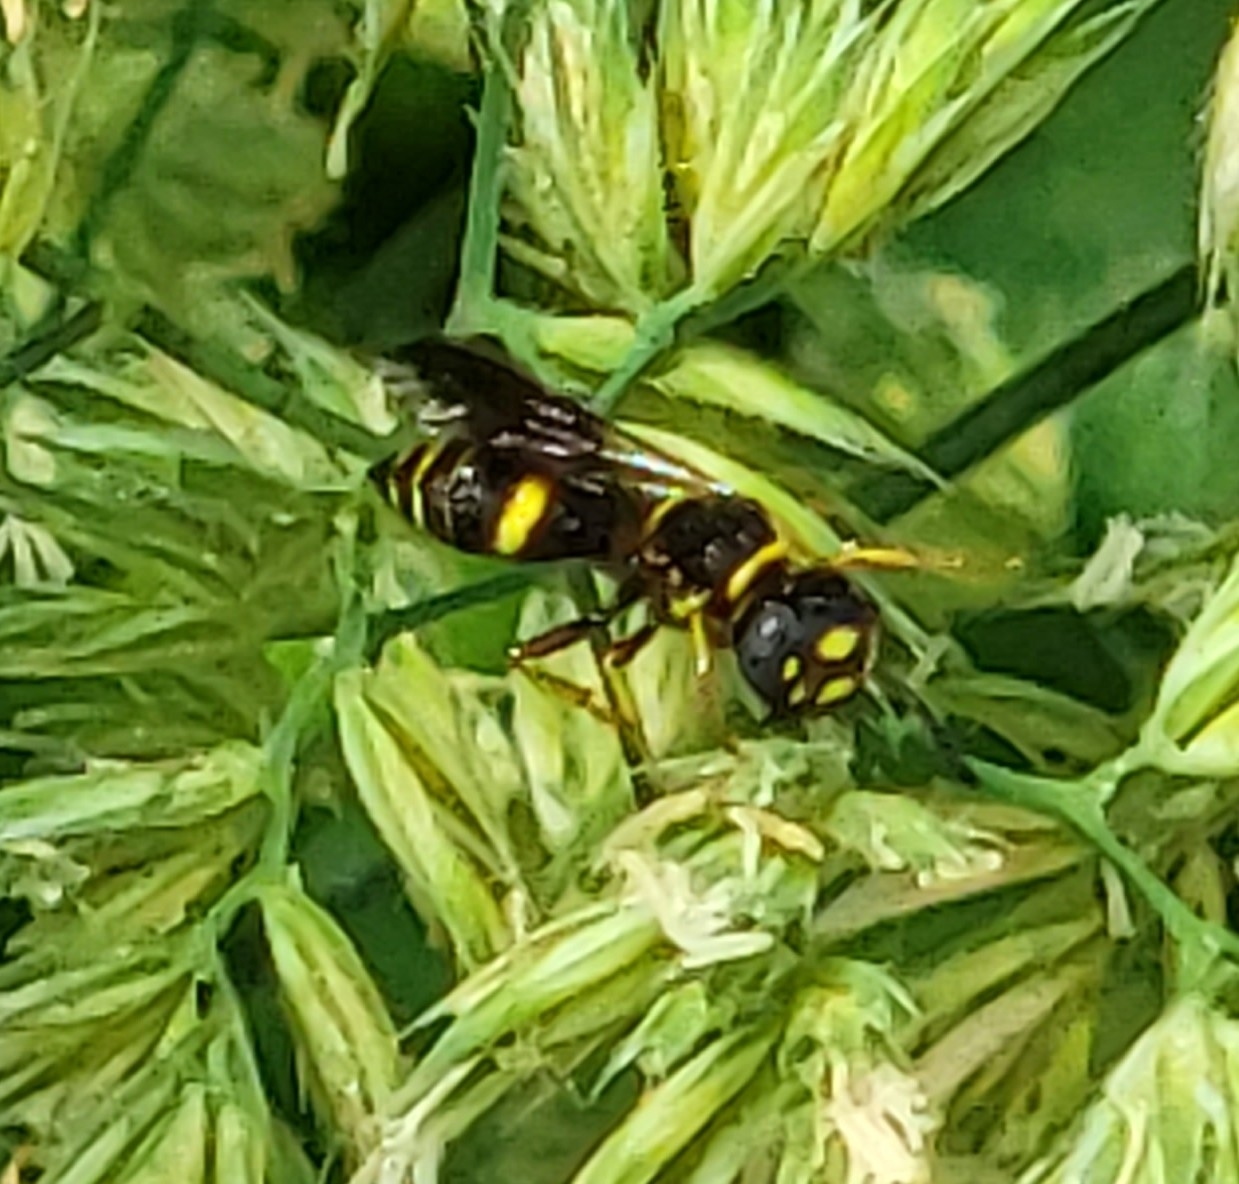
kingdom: Animalia
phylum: Arthropoda
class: Insecta
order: Hymenoptera
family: Crabronidae
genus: Philanthus
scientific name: Philanthus gibbosus
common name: Humped beewolf
